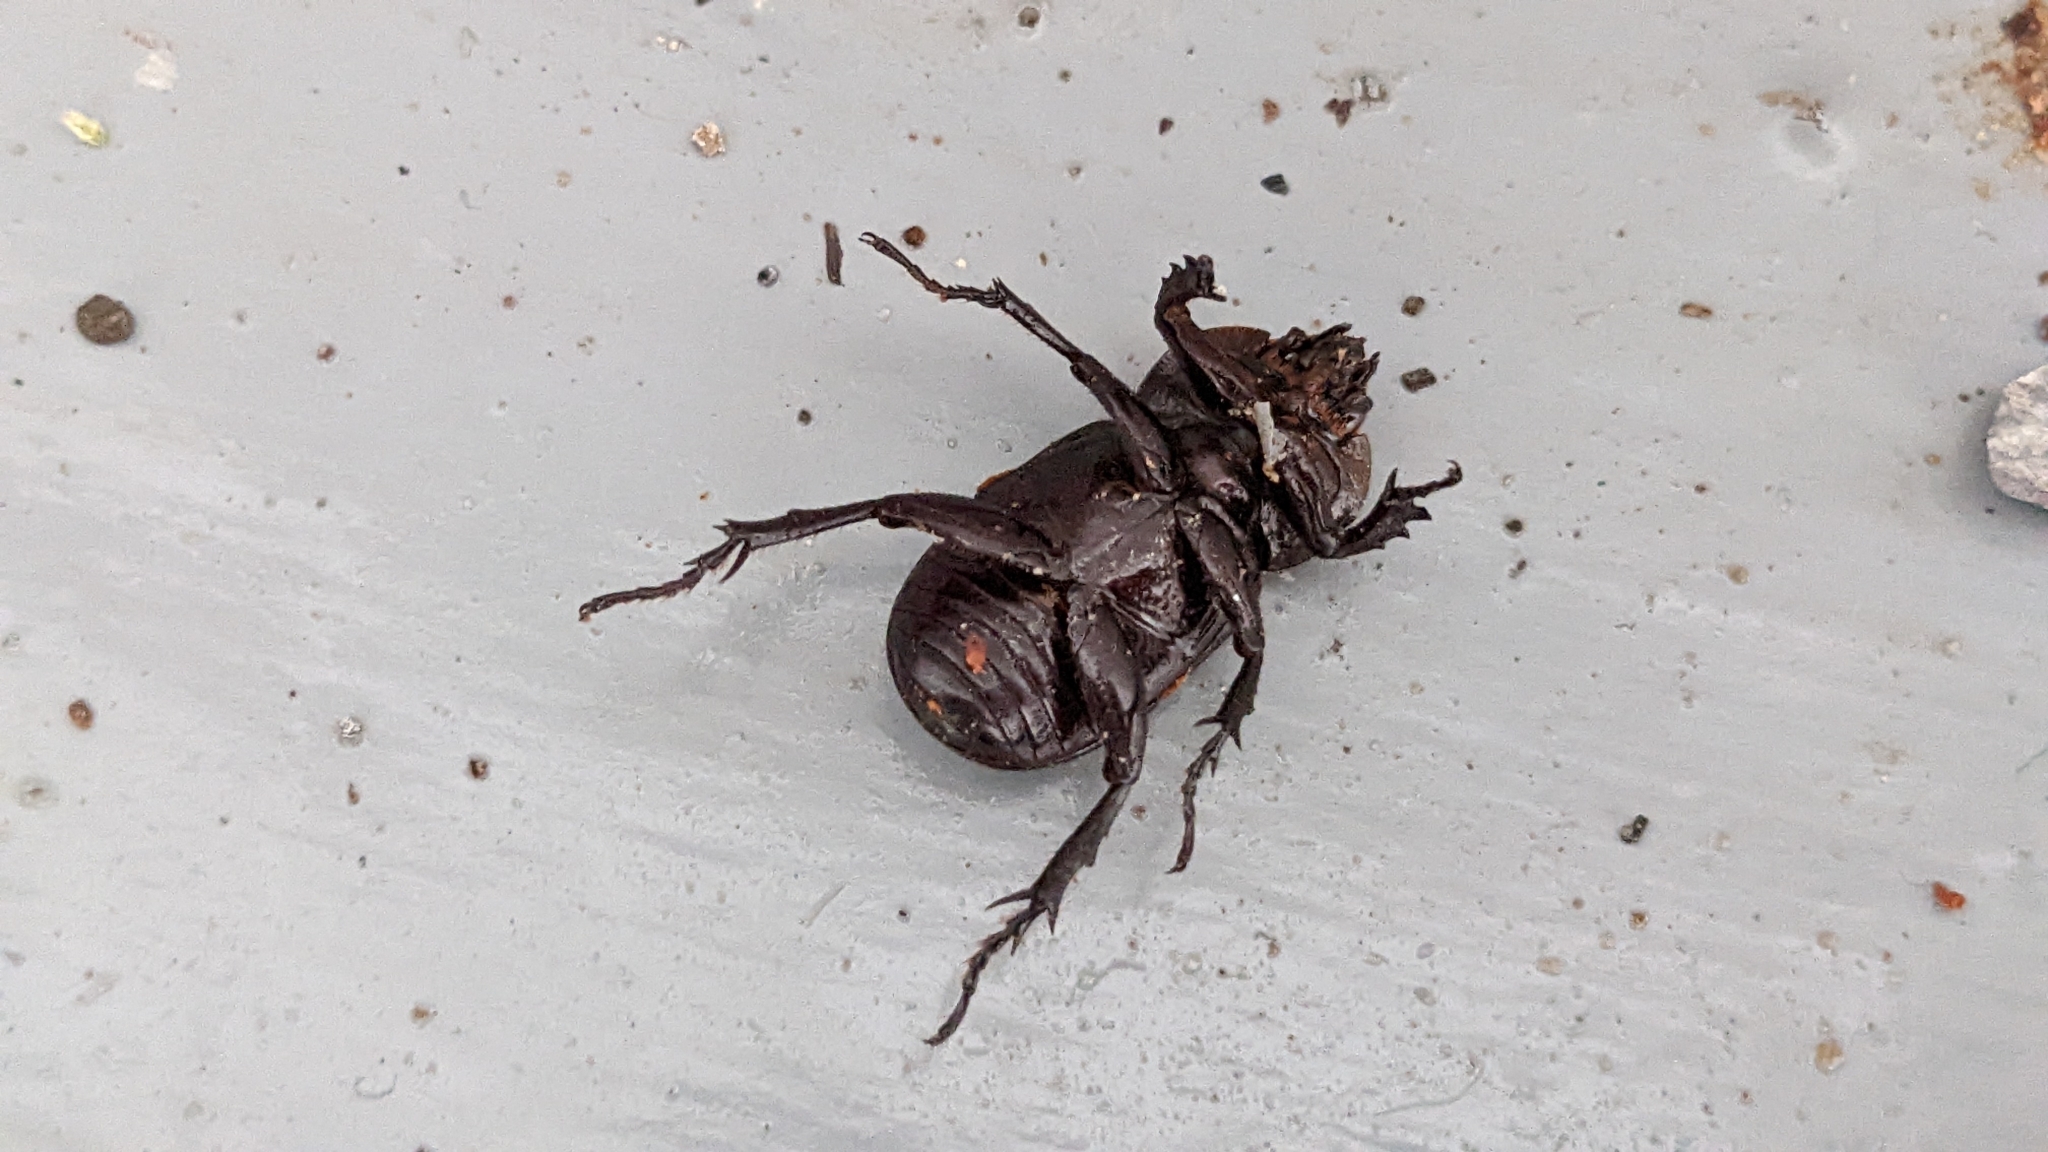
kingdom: Animalia
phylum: Arthropoda
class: Insecta
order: Coleoptera
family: Scarabaeidae
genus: Phileurus
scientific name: Phileurus valgus
